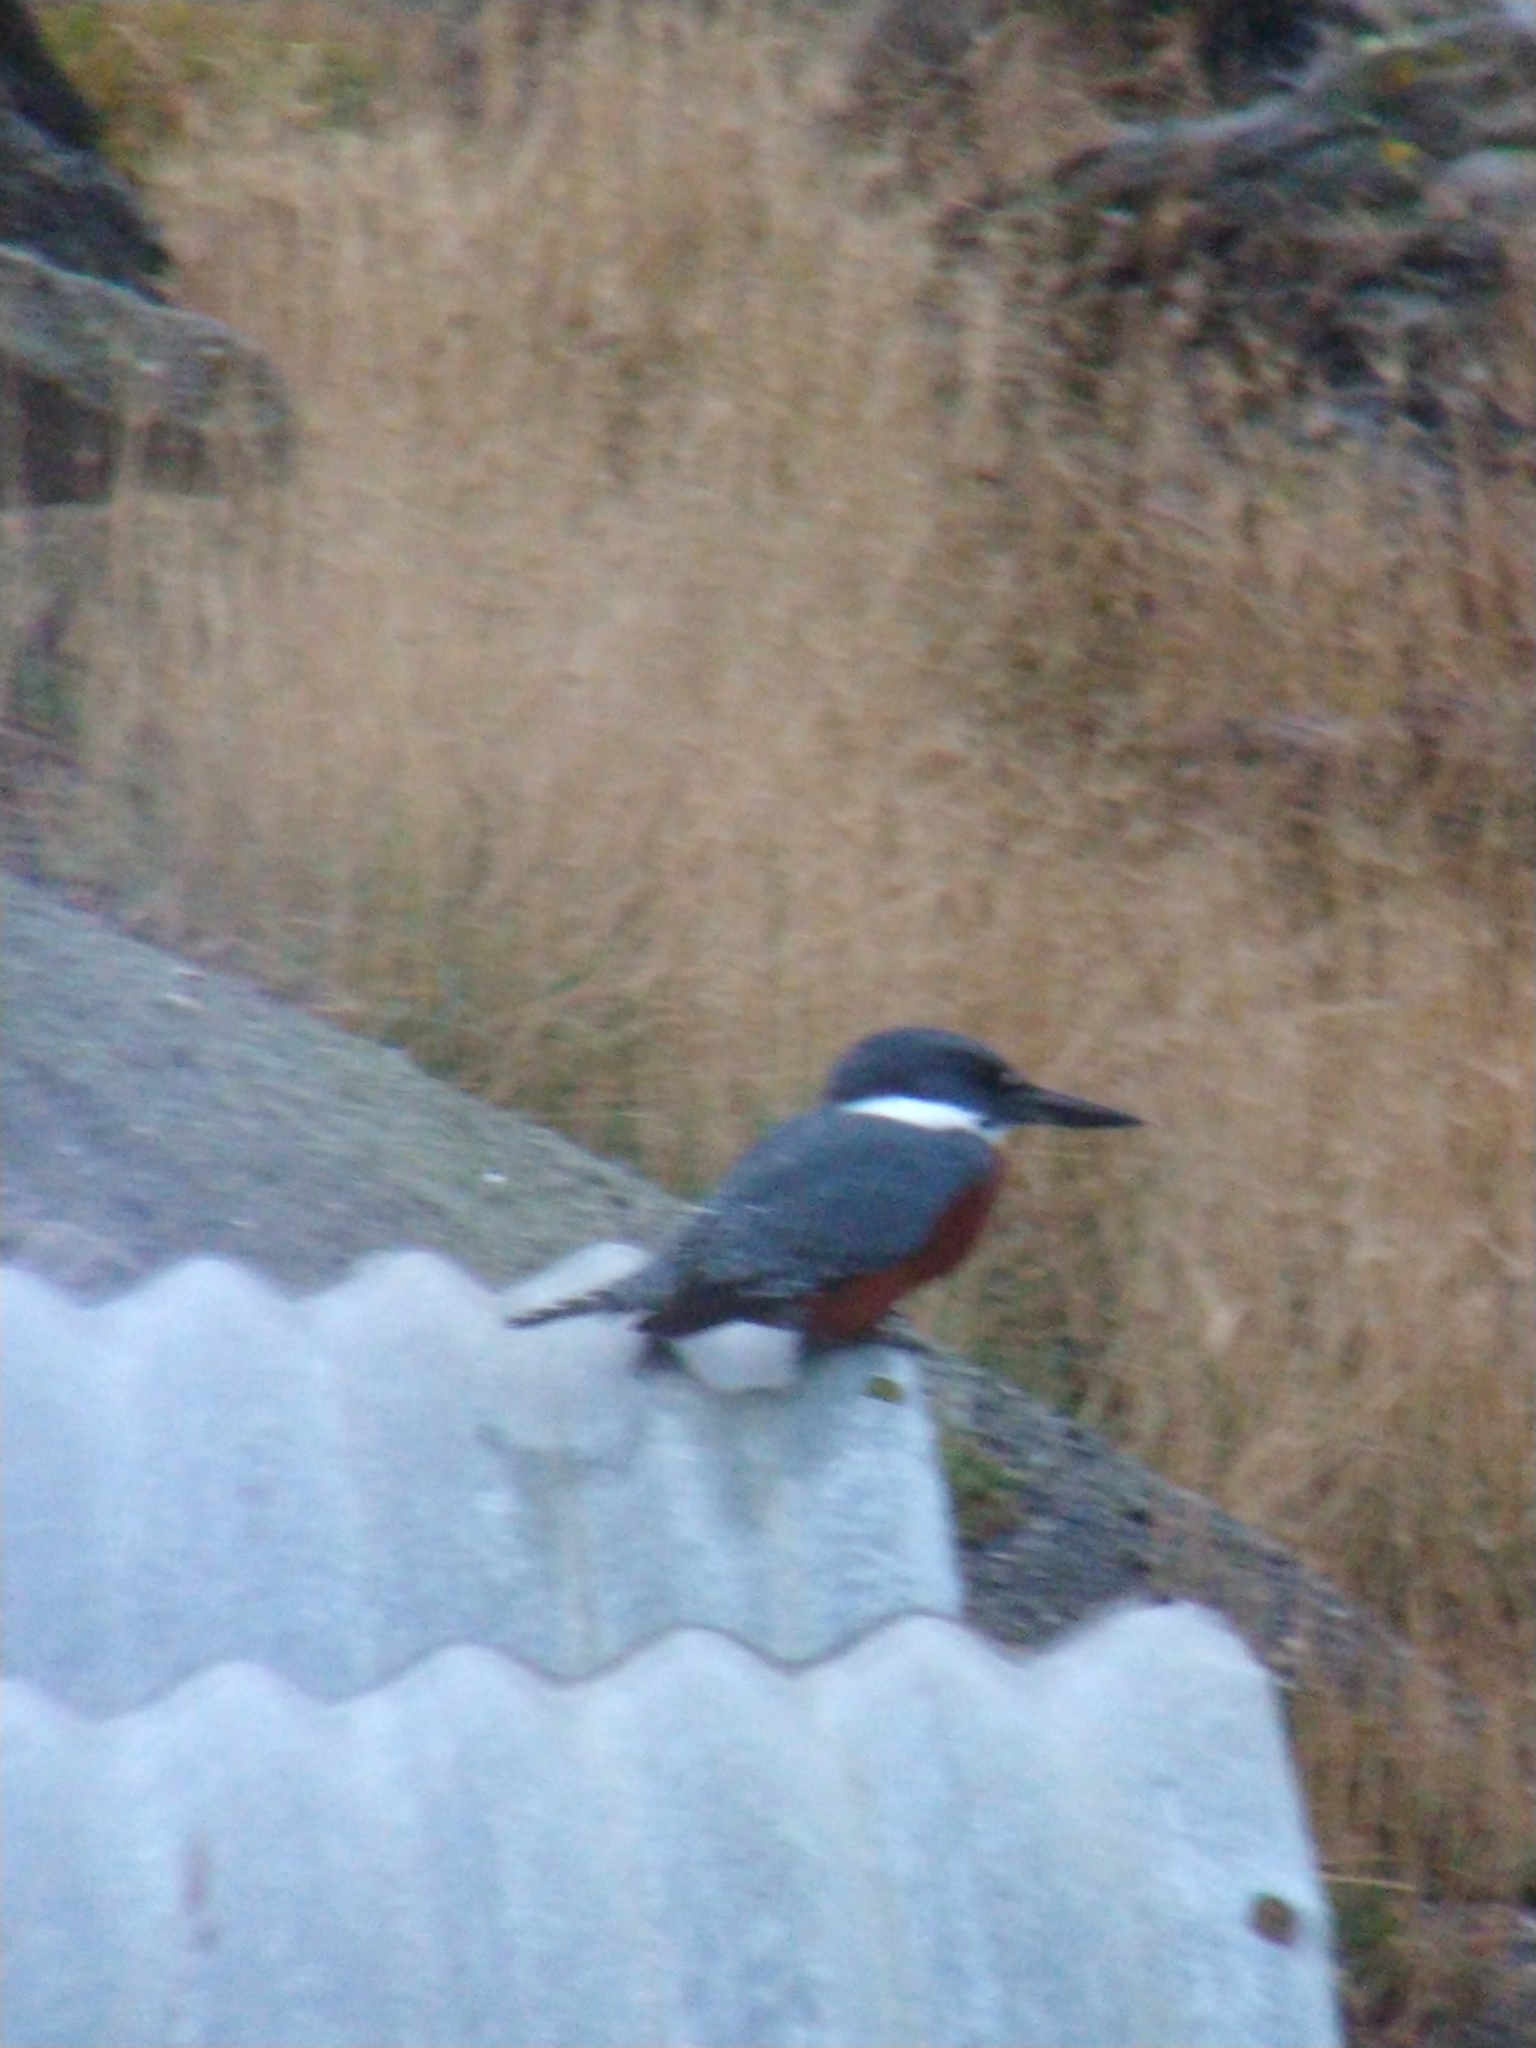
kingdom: Animalia
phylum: Chordata
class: Aves
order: Coraciiformes
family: Alcedinidae
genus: Megaceryle
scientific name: Megaceryle torquata
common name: Ringed kingfisher
